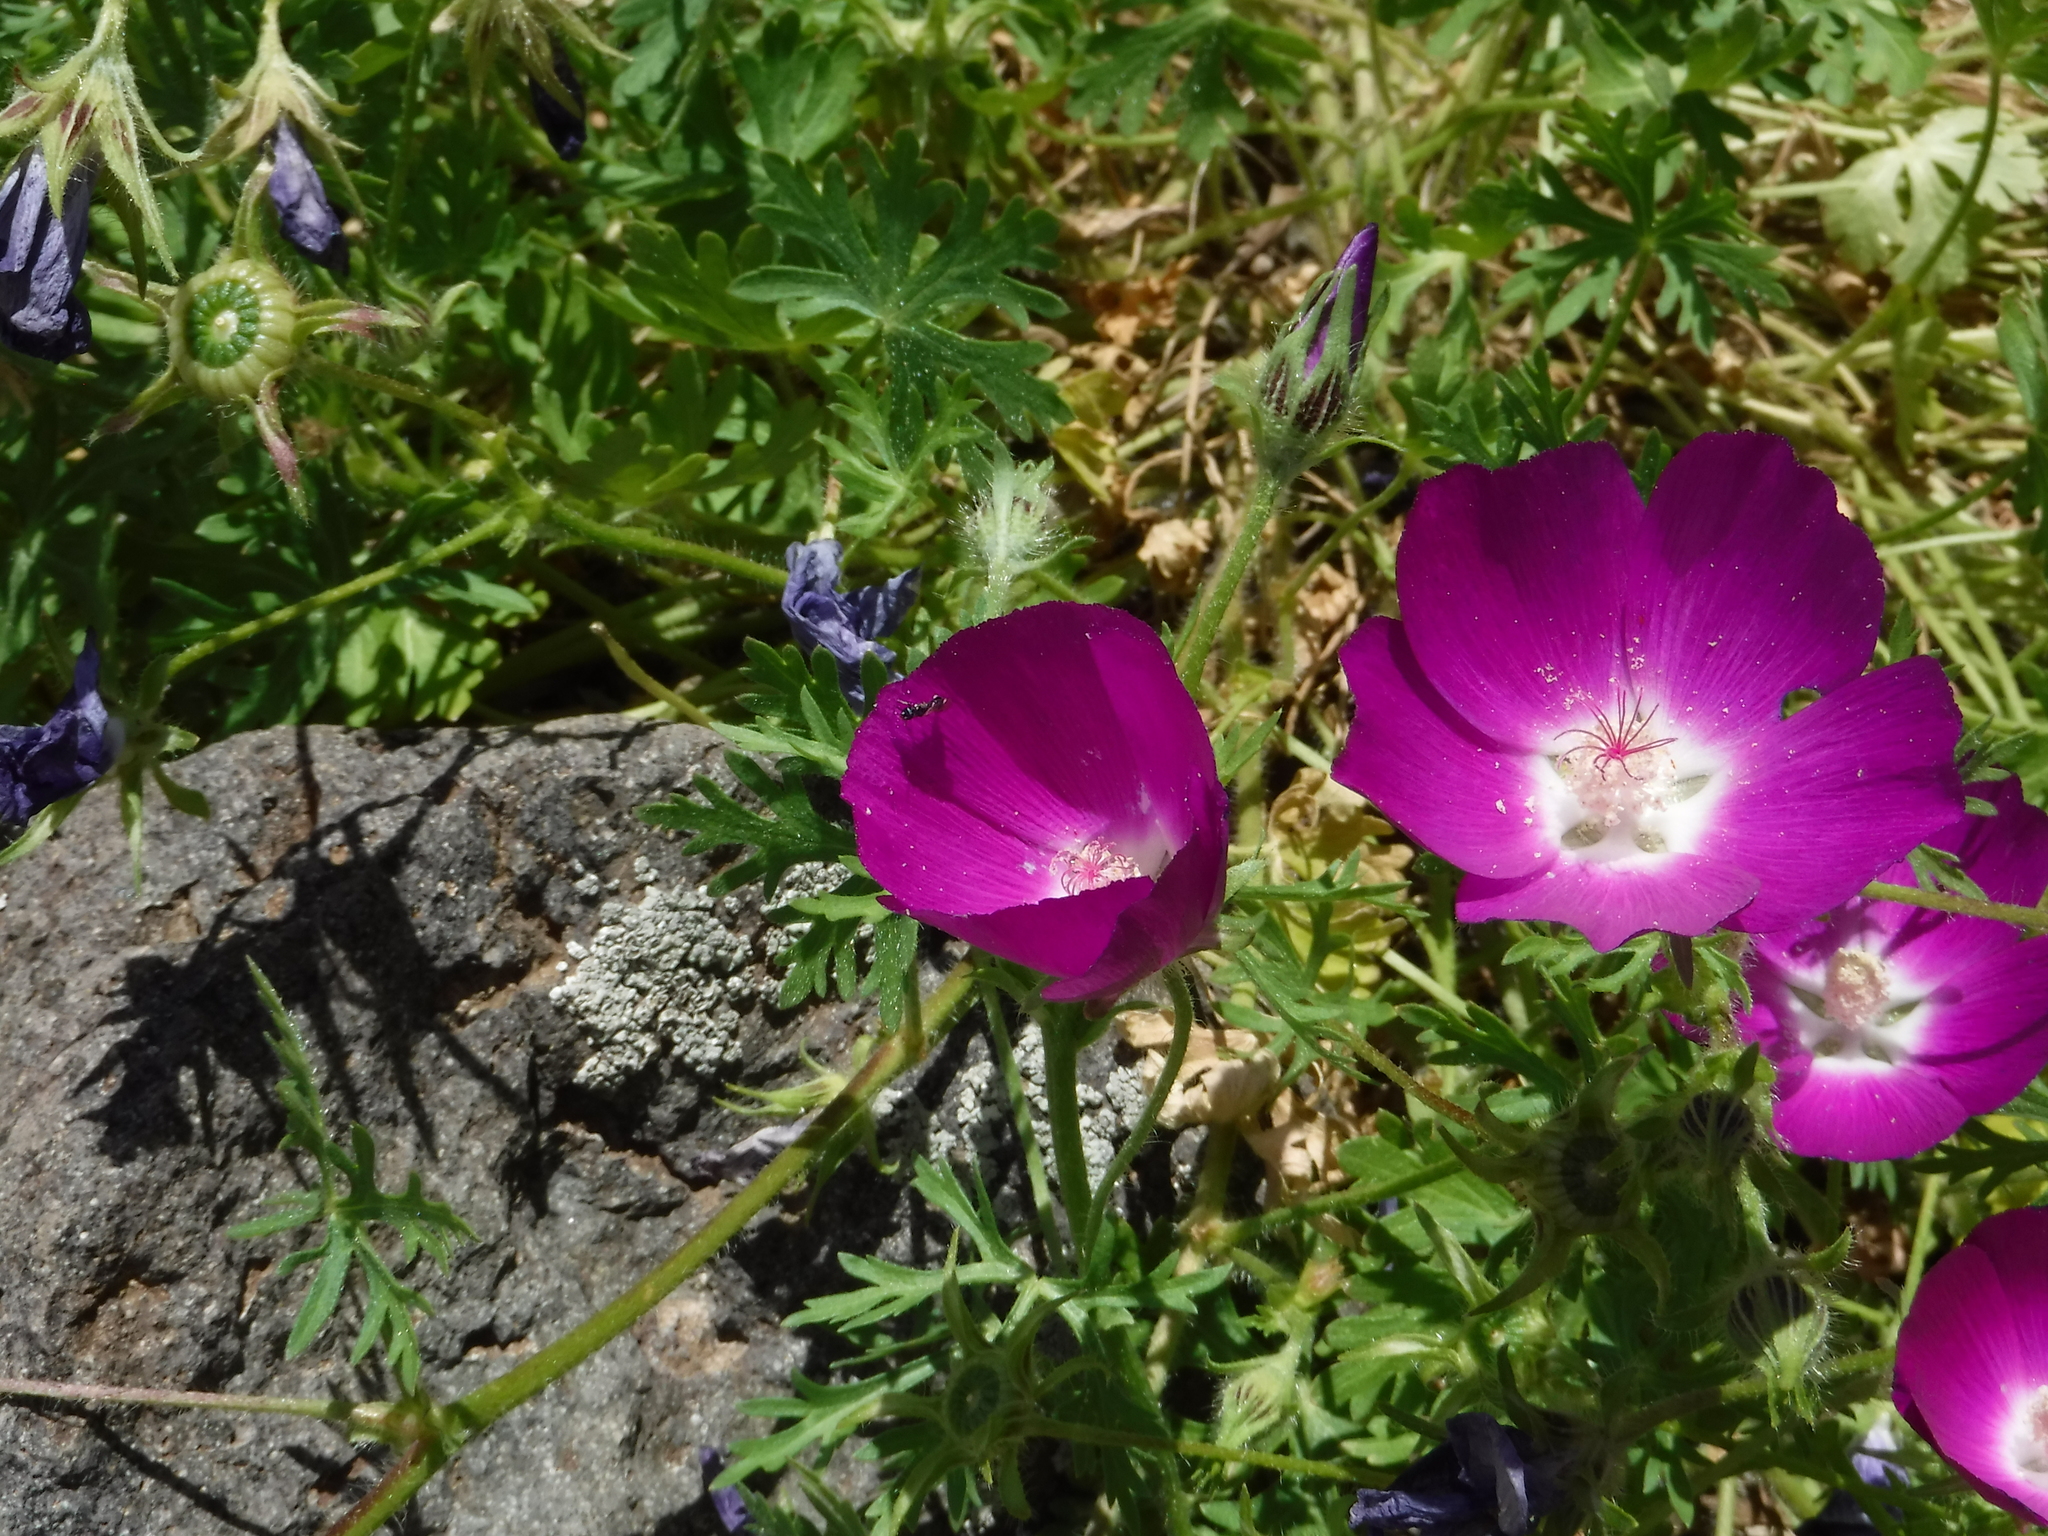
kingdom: Animalia
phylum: Arthropoda
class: Insecta
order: Hymenoptera
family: Colletidae
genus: Hylaeus
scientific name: Hylaeus
